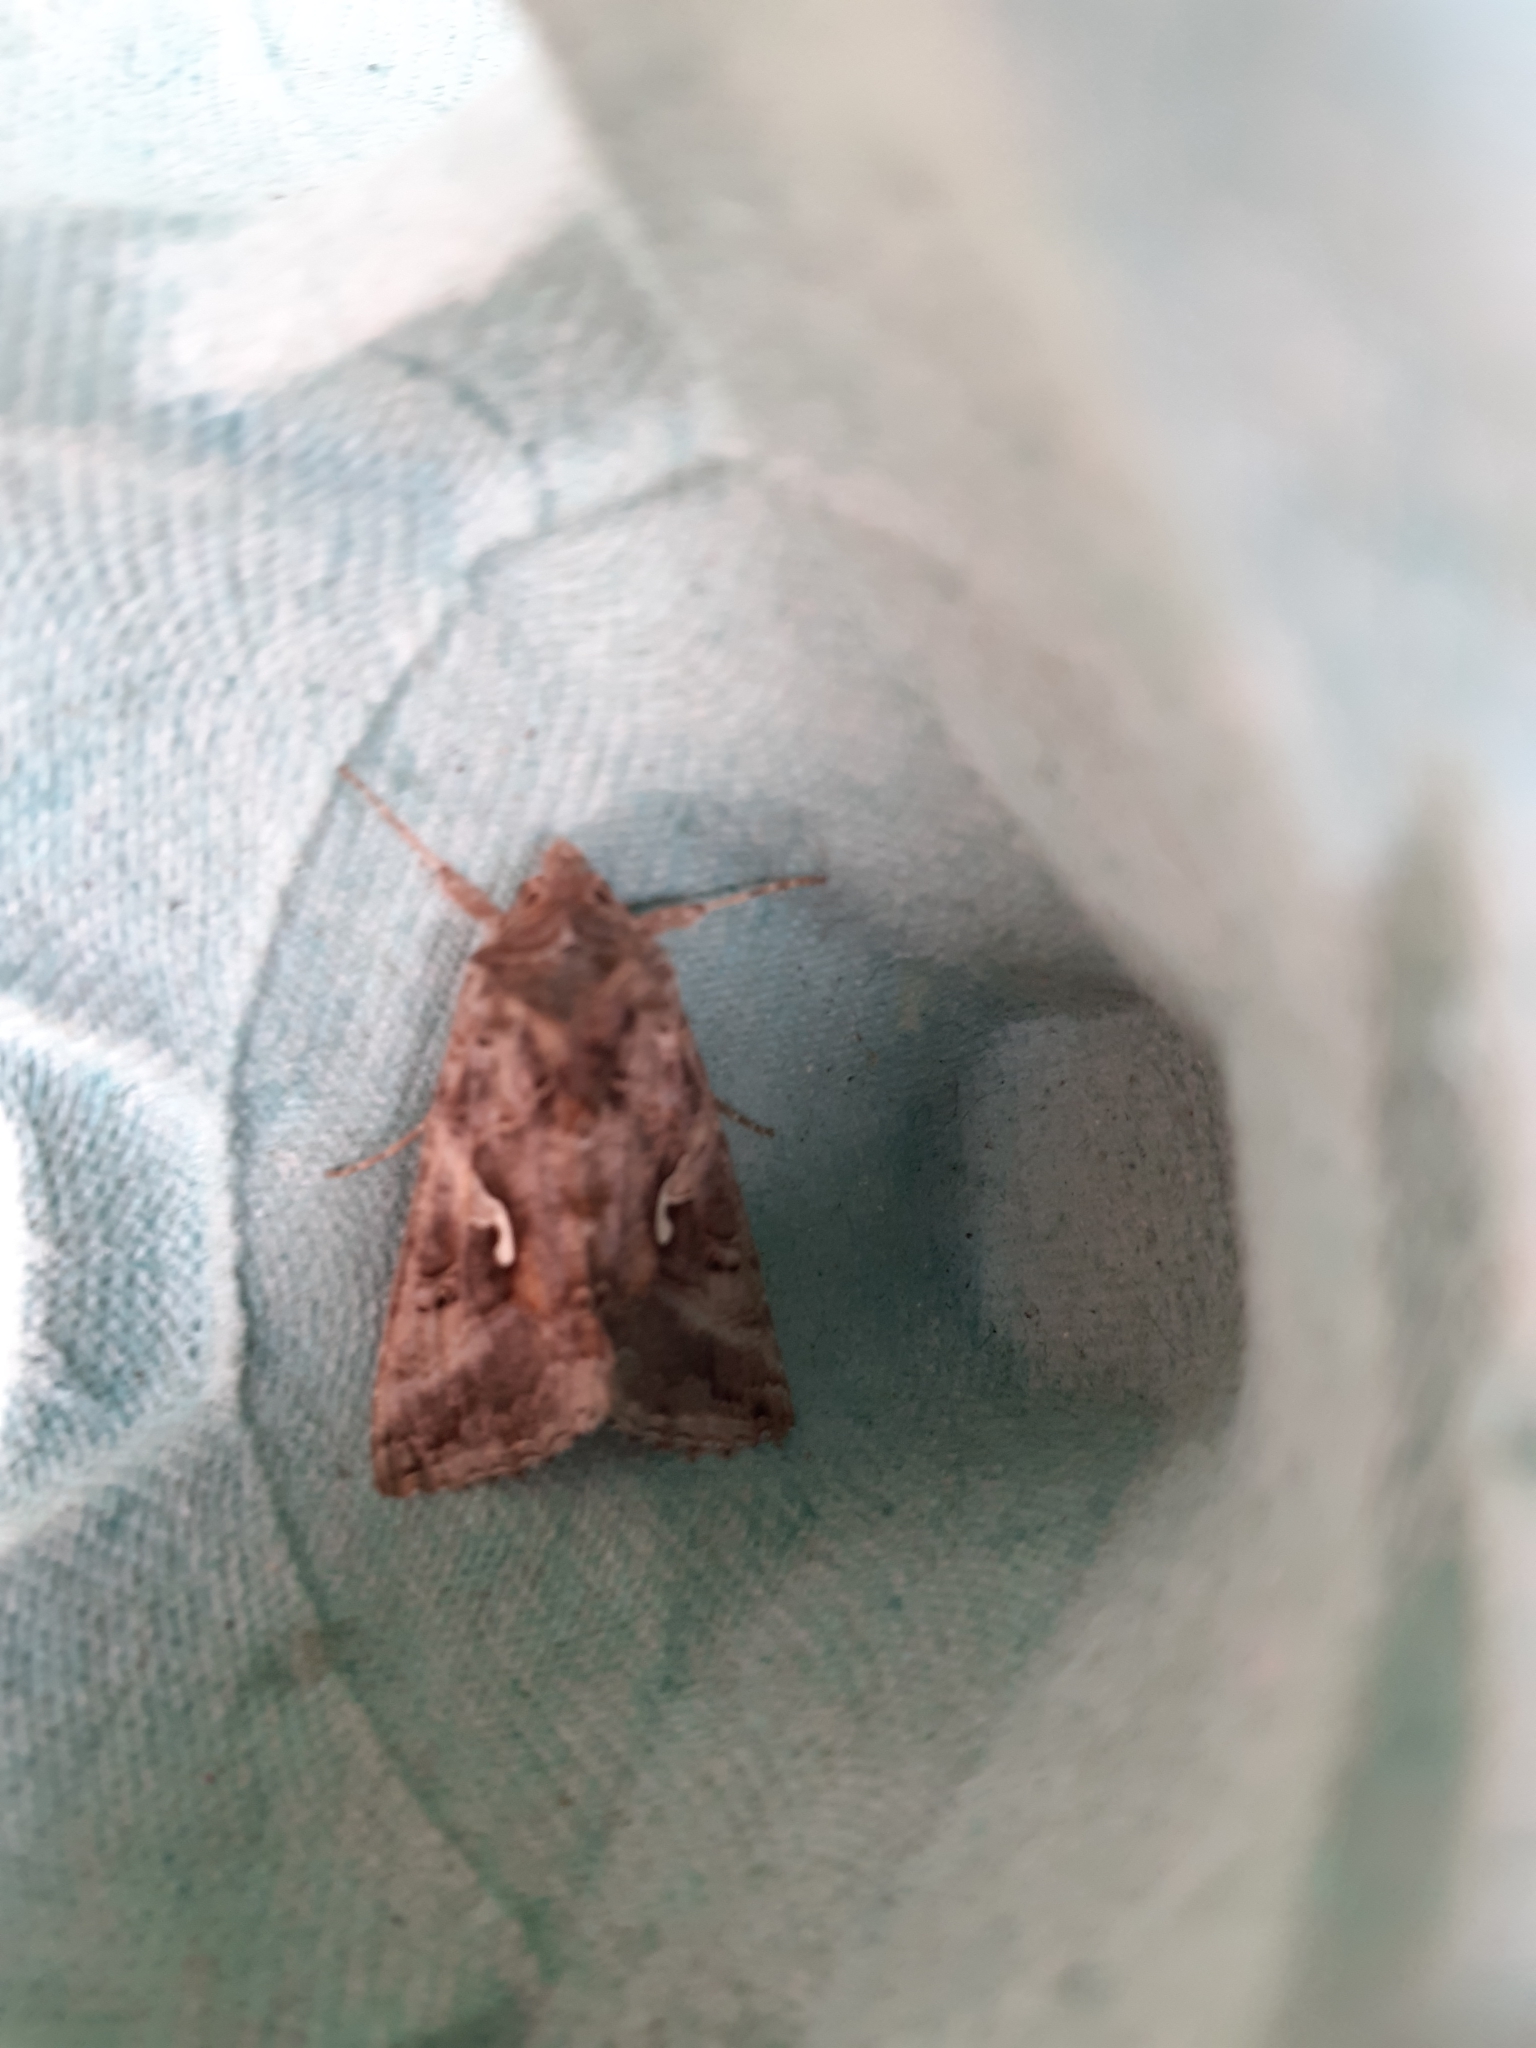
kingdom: Animalia
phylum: Arthropoda
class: Insecta
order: Lepidoptera
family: Noctuidae
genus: Autographa
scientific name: Autographa gamma
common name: Silver y
